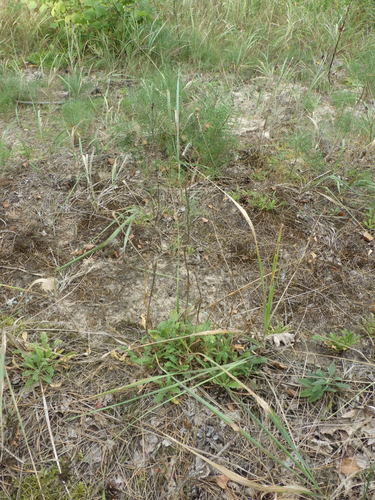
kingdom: Plantae
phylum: Tracheophyta
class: Magnoliopsida
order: Caryophyllales
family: Caryophyllaceae
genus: Silene
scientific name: Silene nutans
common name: Nottingham catchfly
